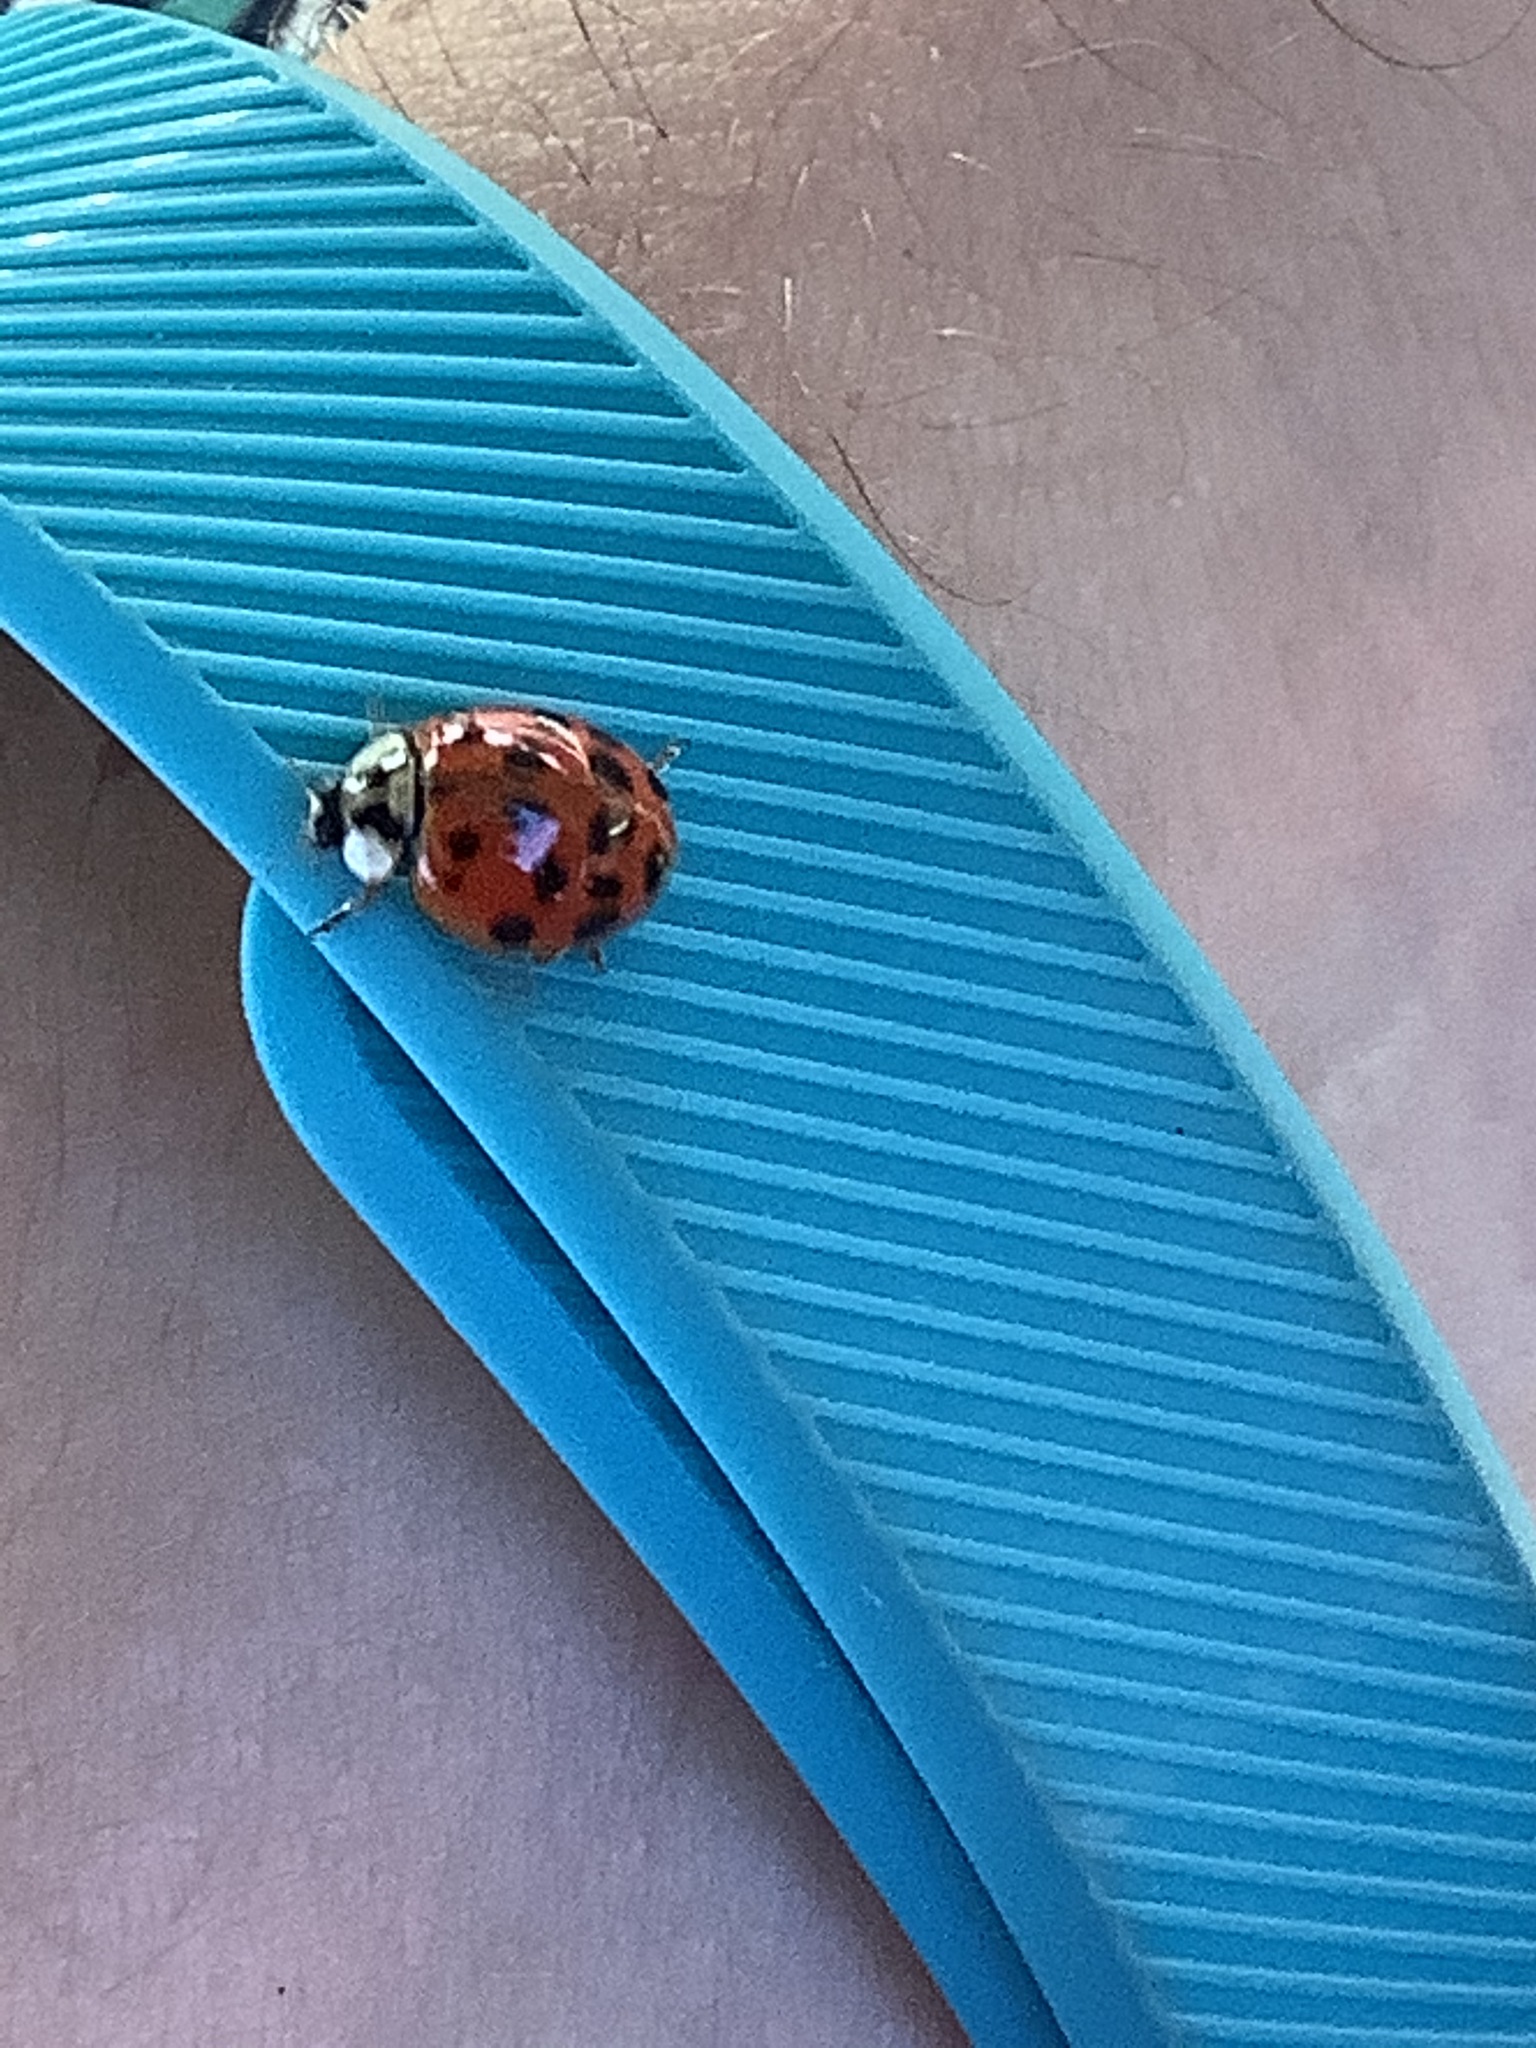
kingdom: Animalia
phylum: Arthropoda
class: Insecta
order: Coleoptera
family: Coccinellidae
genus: Harmonia
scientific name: Harmonia axyridis
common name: Harlequin ladybird
